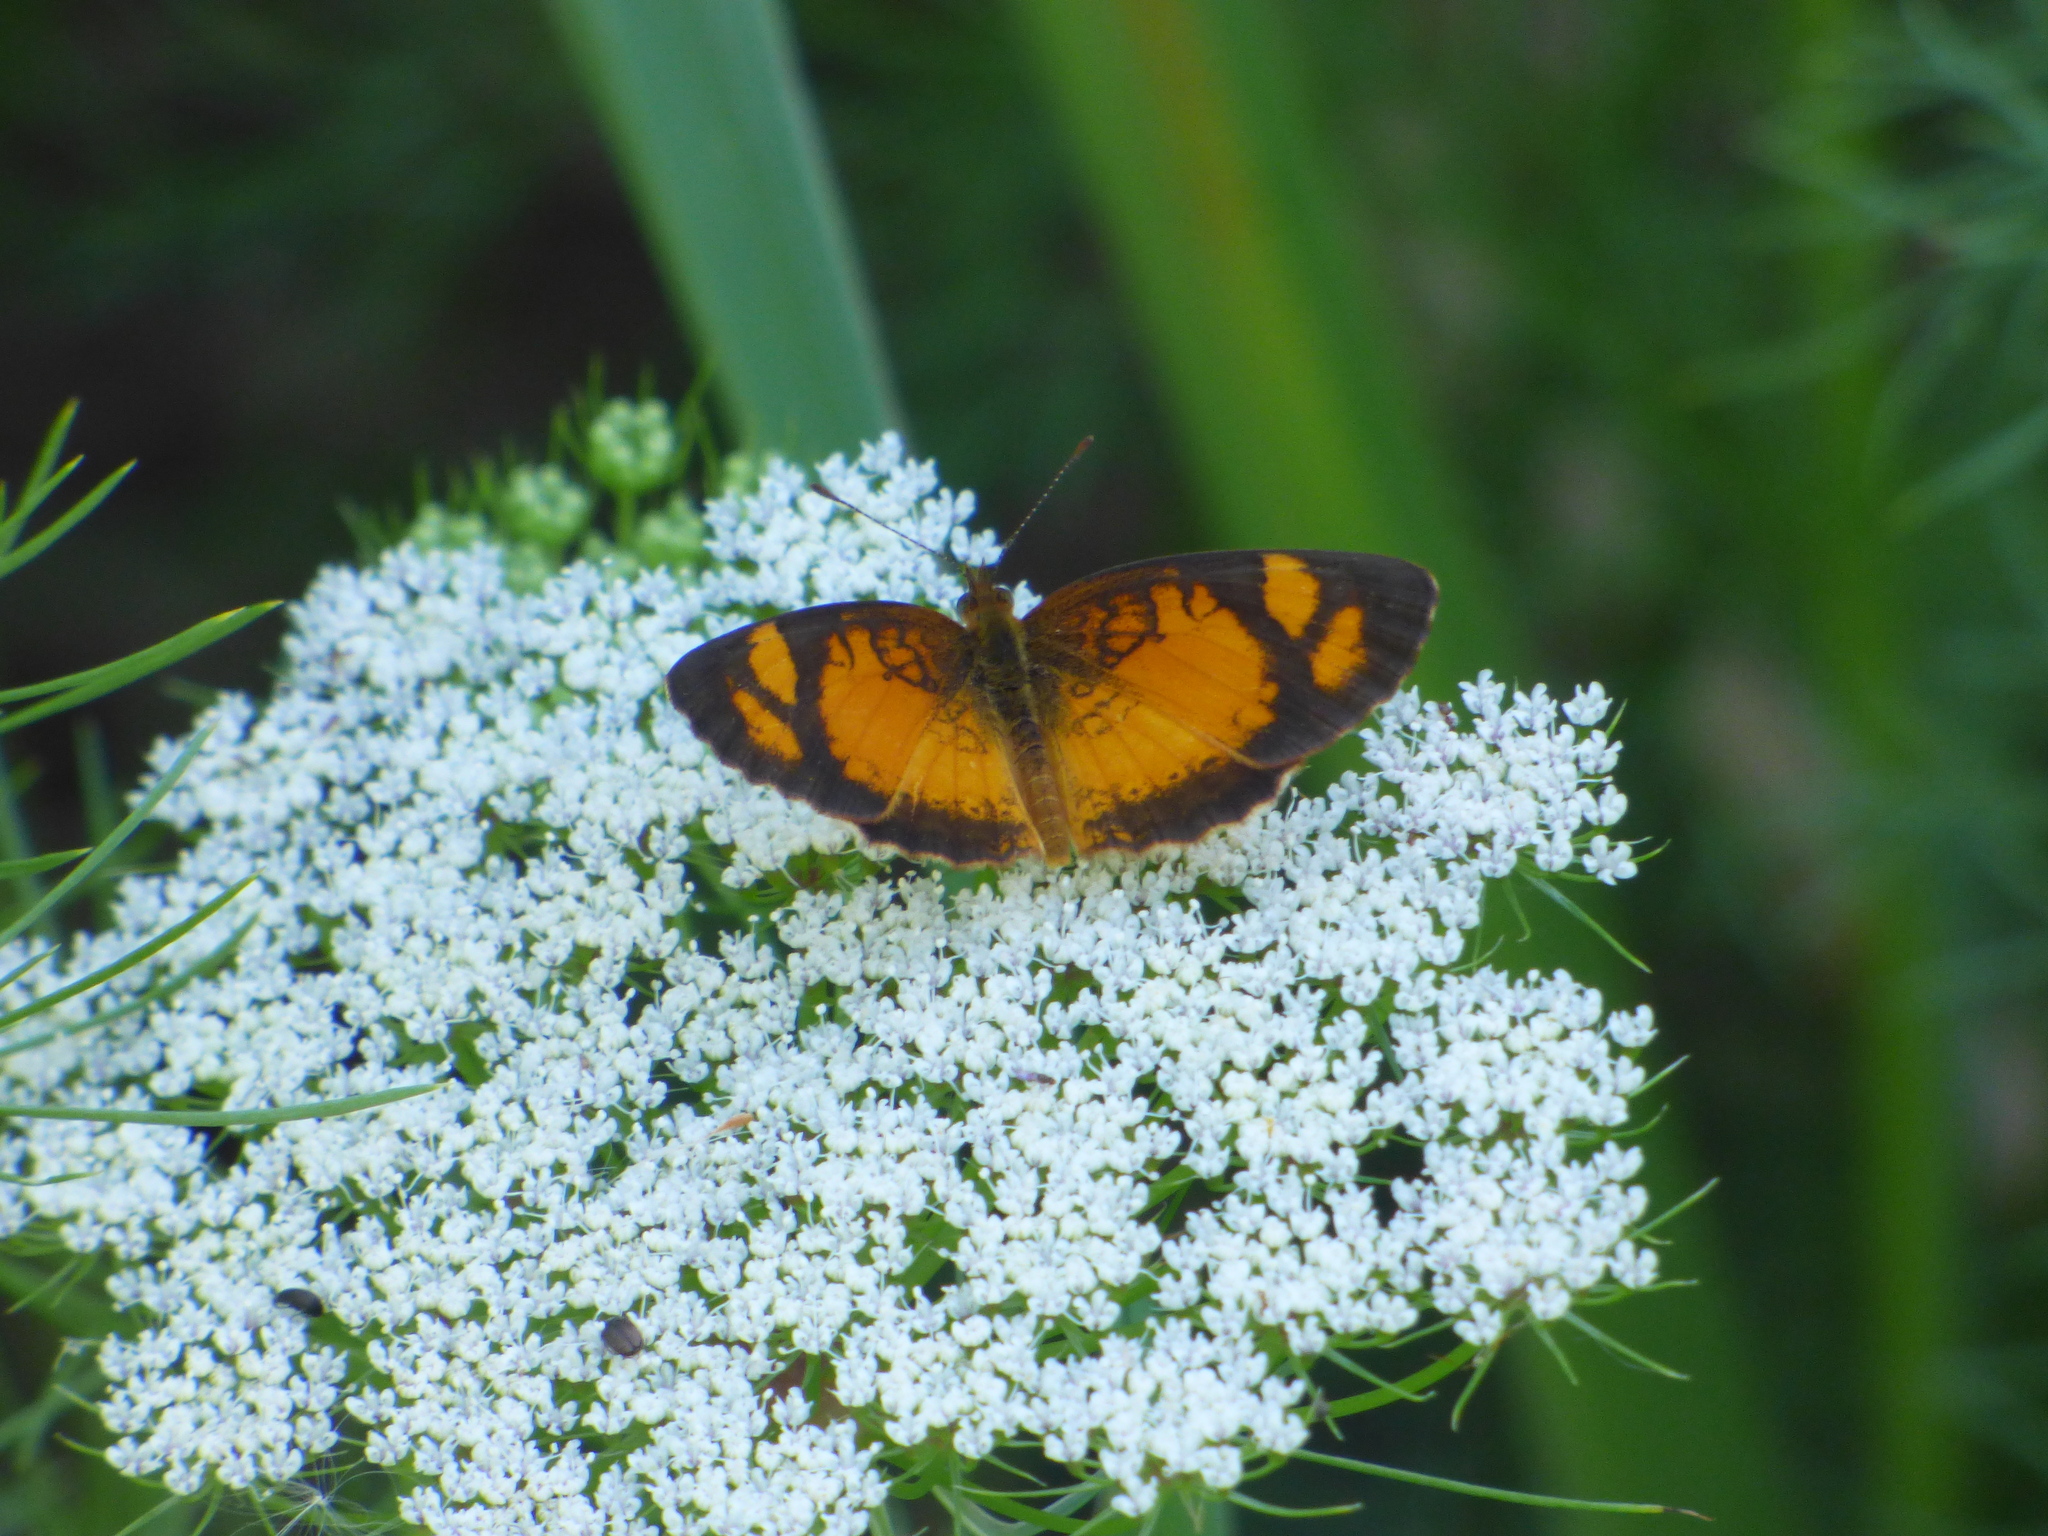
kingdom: Animalia
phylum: Arthropoda
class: Insecta
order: Lepidoptera
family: Nymphalidae
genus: Tegosa
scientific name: Tegosa claudina
